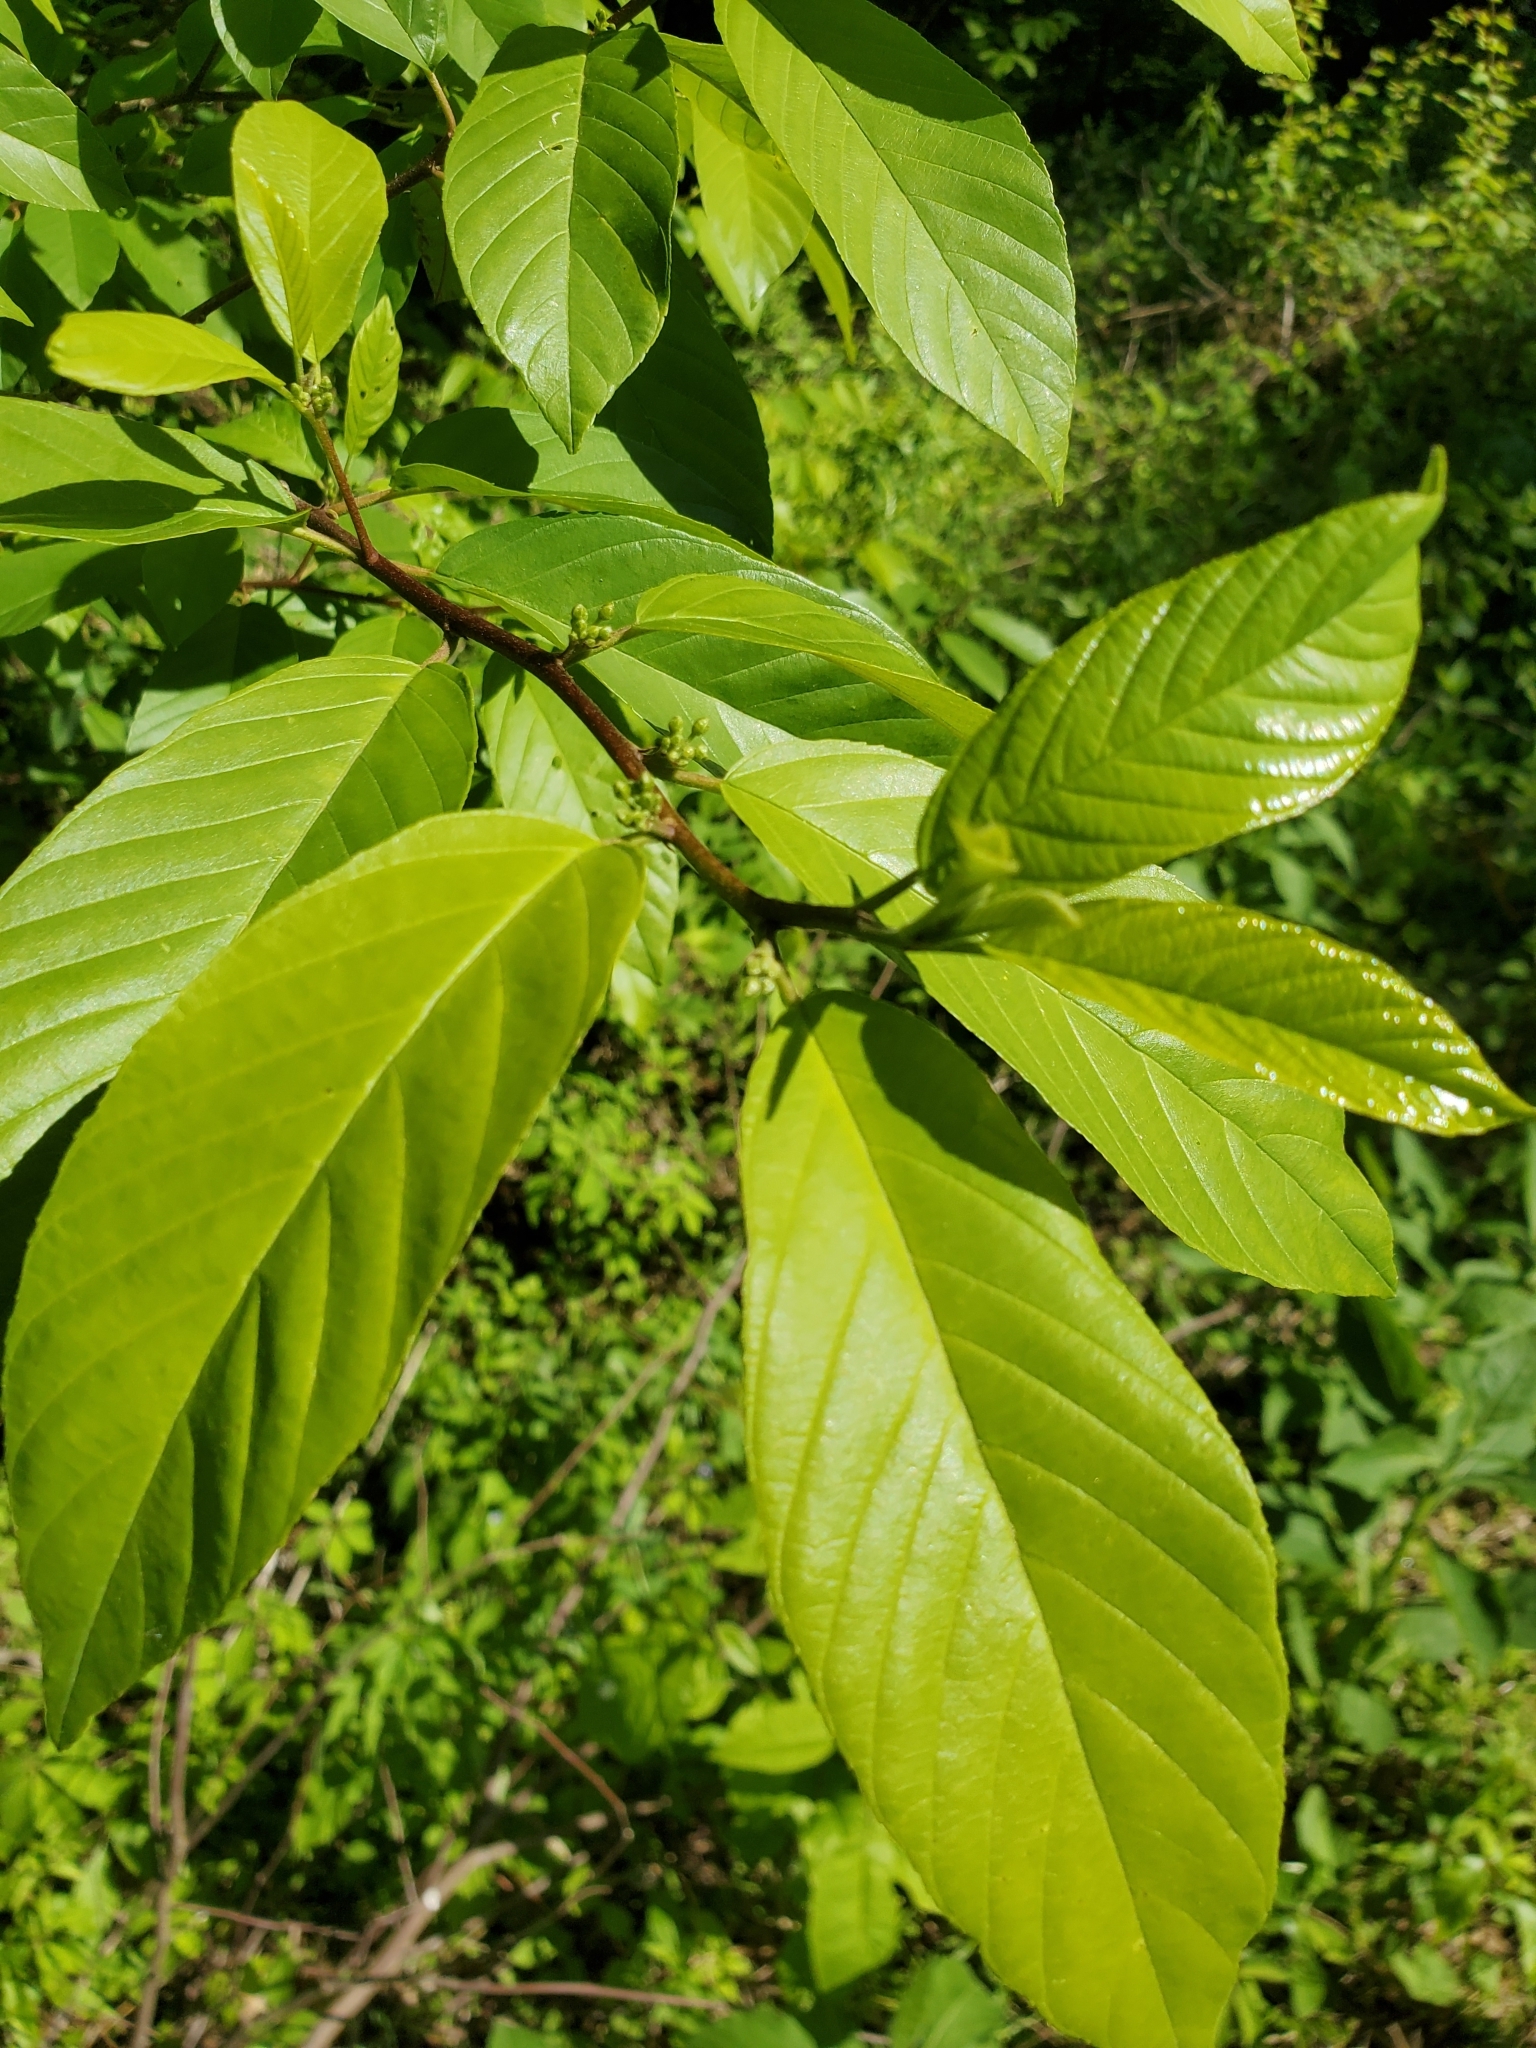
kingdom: Plantae
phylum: Tracheophyta
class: Magnoliopsida
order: Rosales
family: Rhamnaceae
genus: Frangula
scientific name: Frangula caroliniana
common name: Carolina buckthorn
